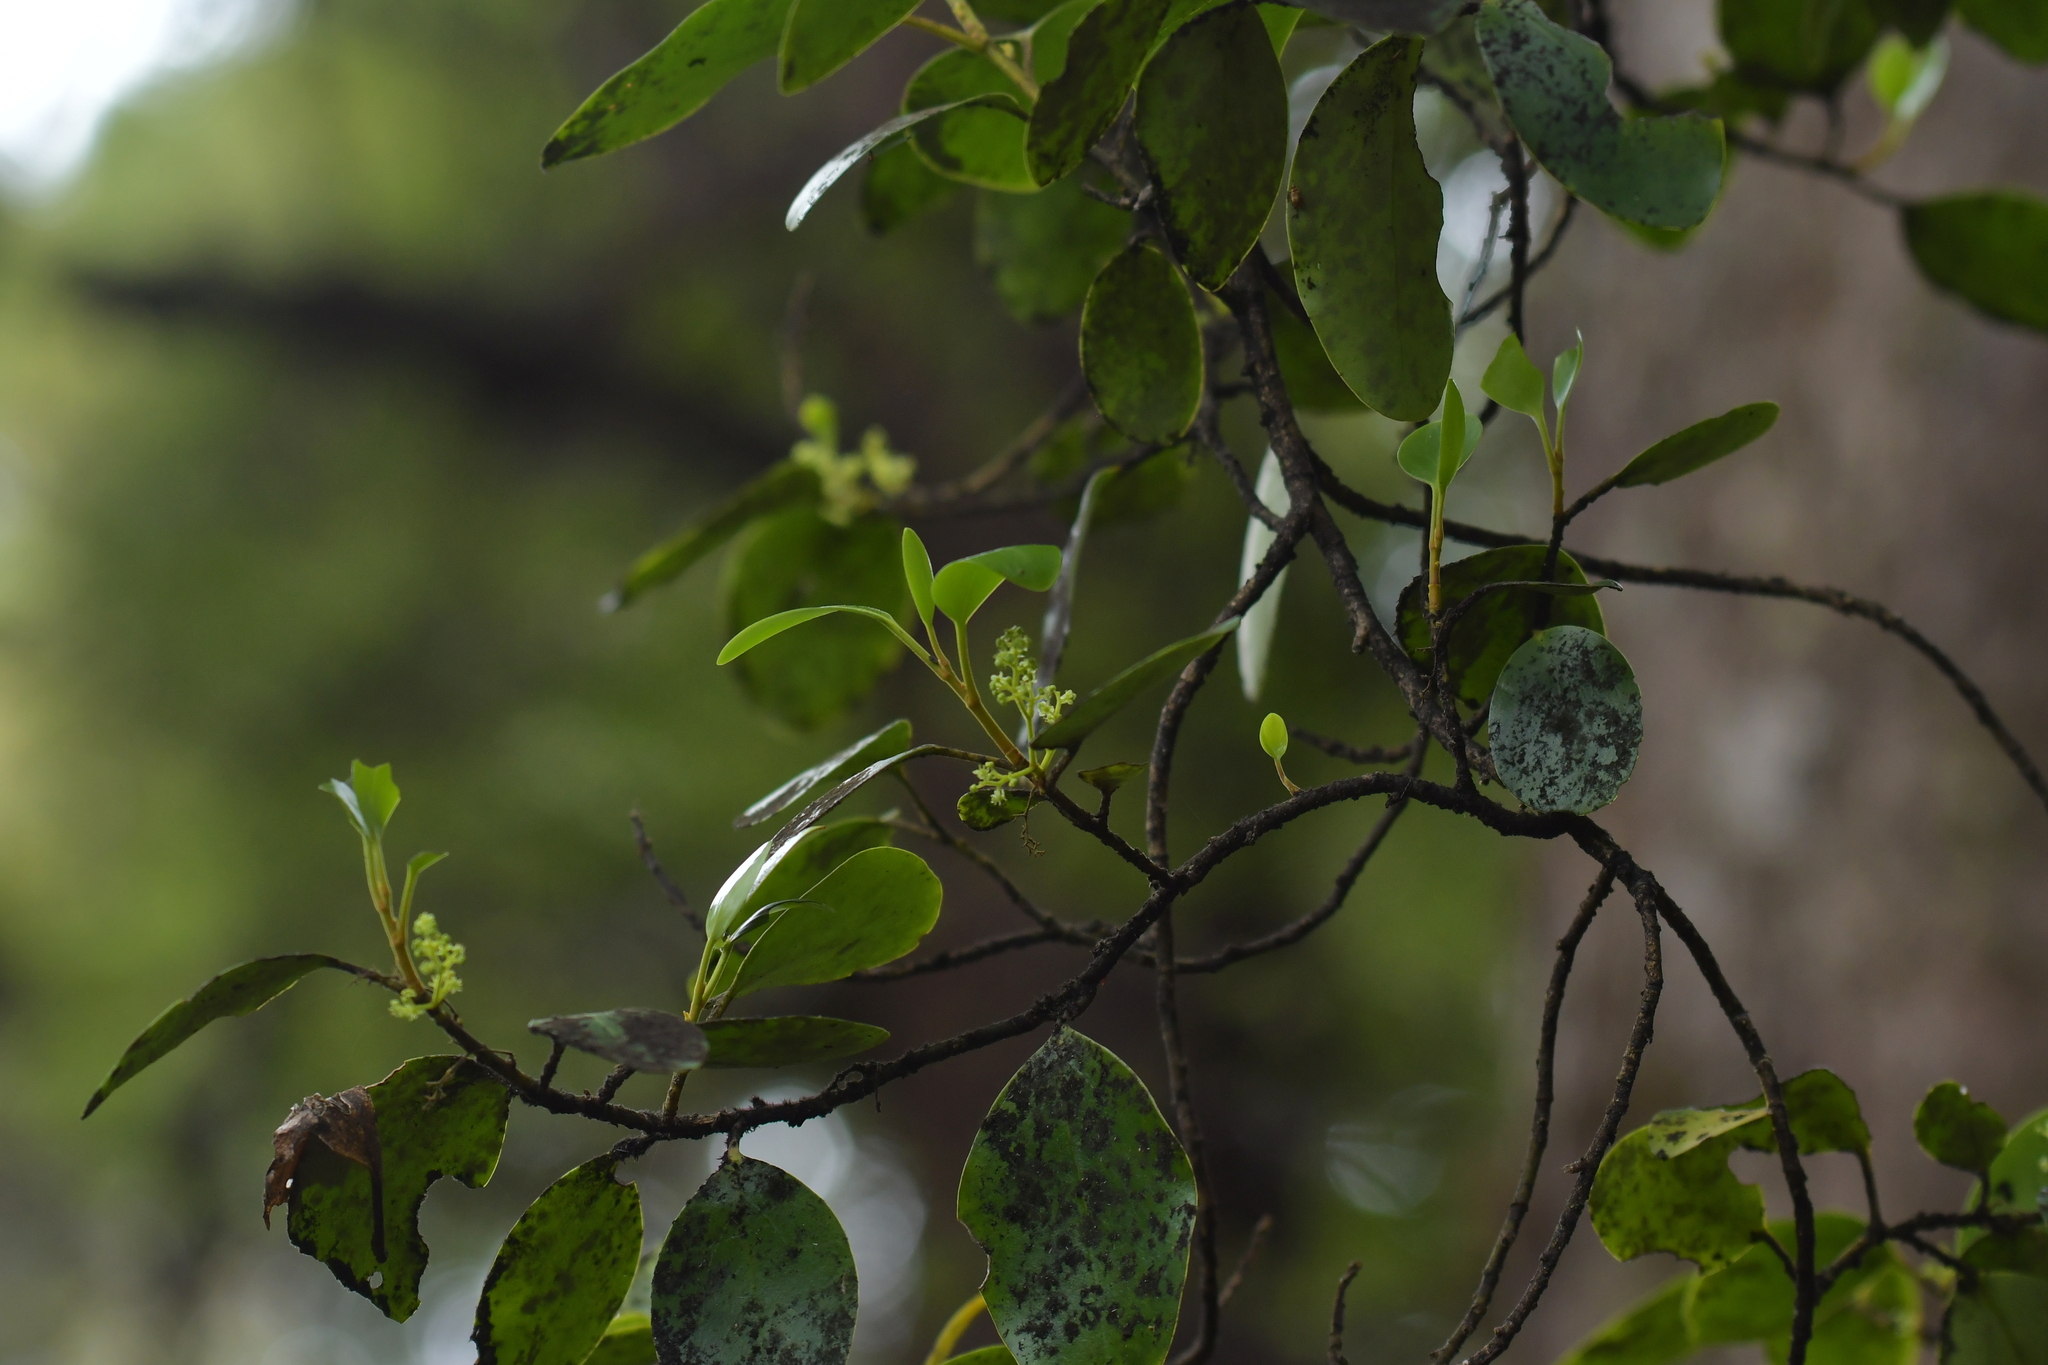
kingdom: Plantae
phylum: Tracheophyta
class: Magnoliopsida
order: Canellales
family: Winteraceae
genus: Pseudowintera
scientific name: Pseudowintera axillaris
